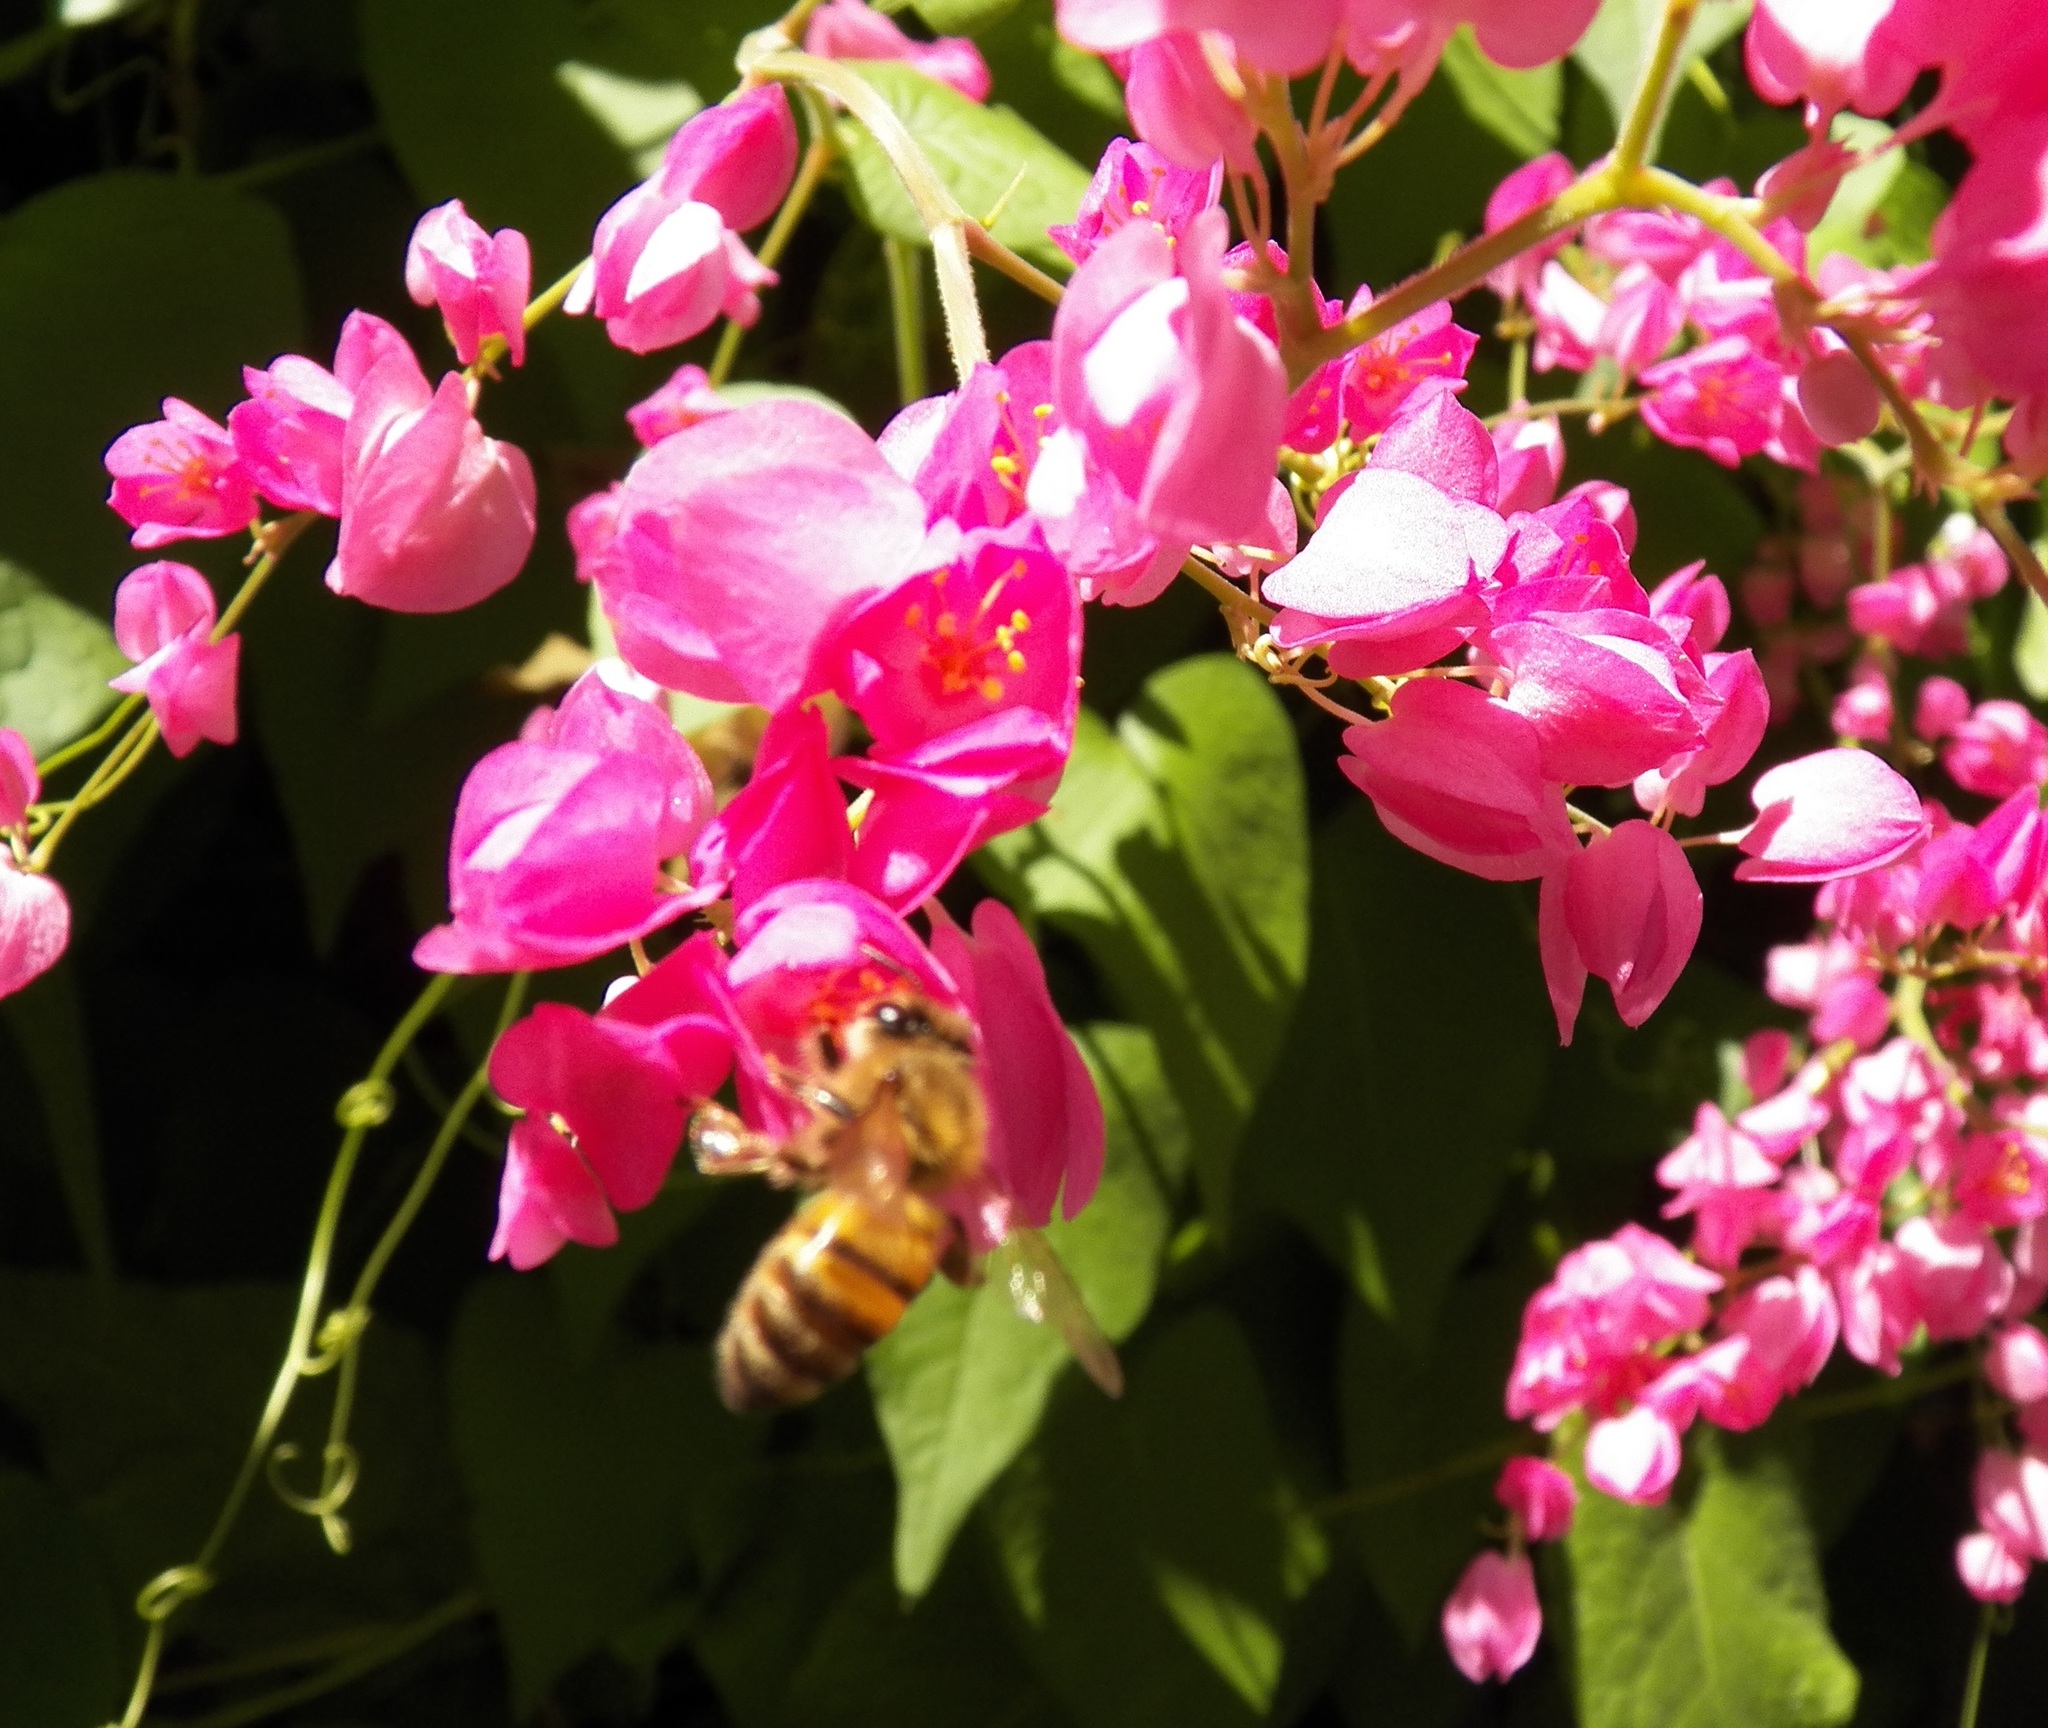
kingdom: Animalia
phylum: Arthropoda
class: Insecta
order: Hymenoptera
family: Apidae
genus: Apis
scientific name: Apis mellifera
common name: Honey bee
